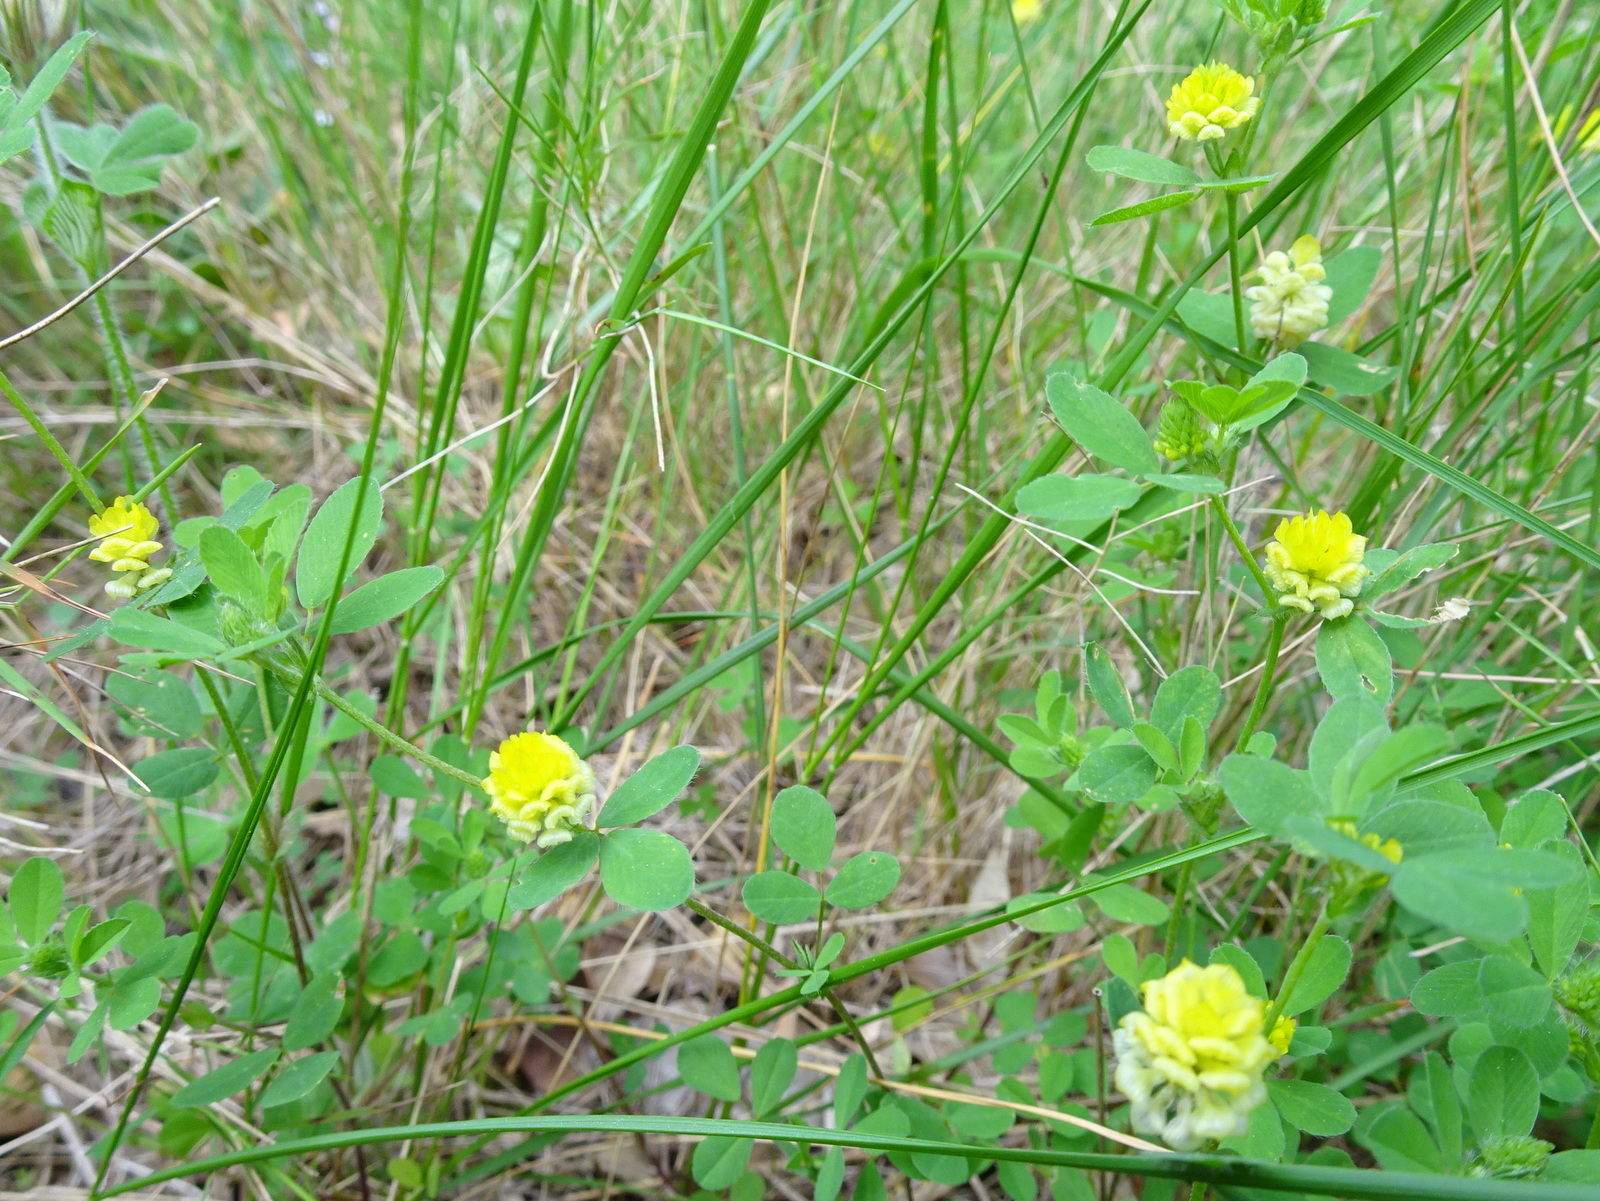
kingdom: Plantae
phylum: Tracheophyta
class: Magnoliopsida
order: Fabales
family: Fabaceae
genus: Trifolium
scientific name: Trifolium campestre
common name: Field clover
